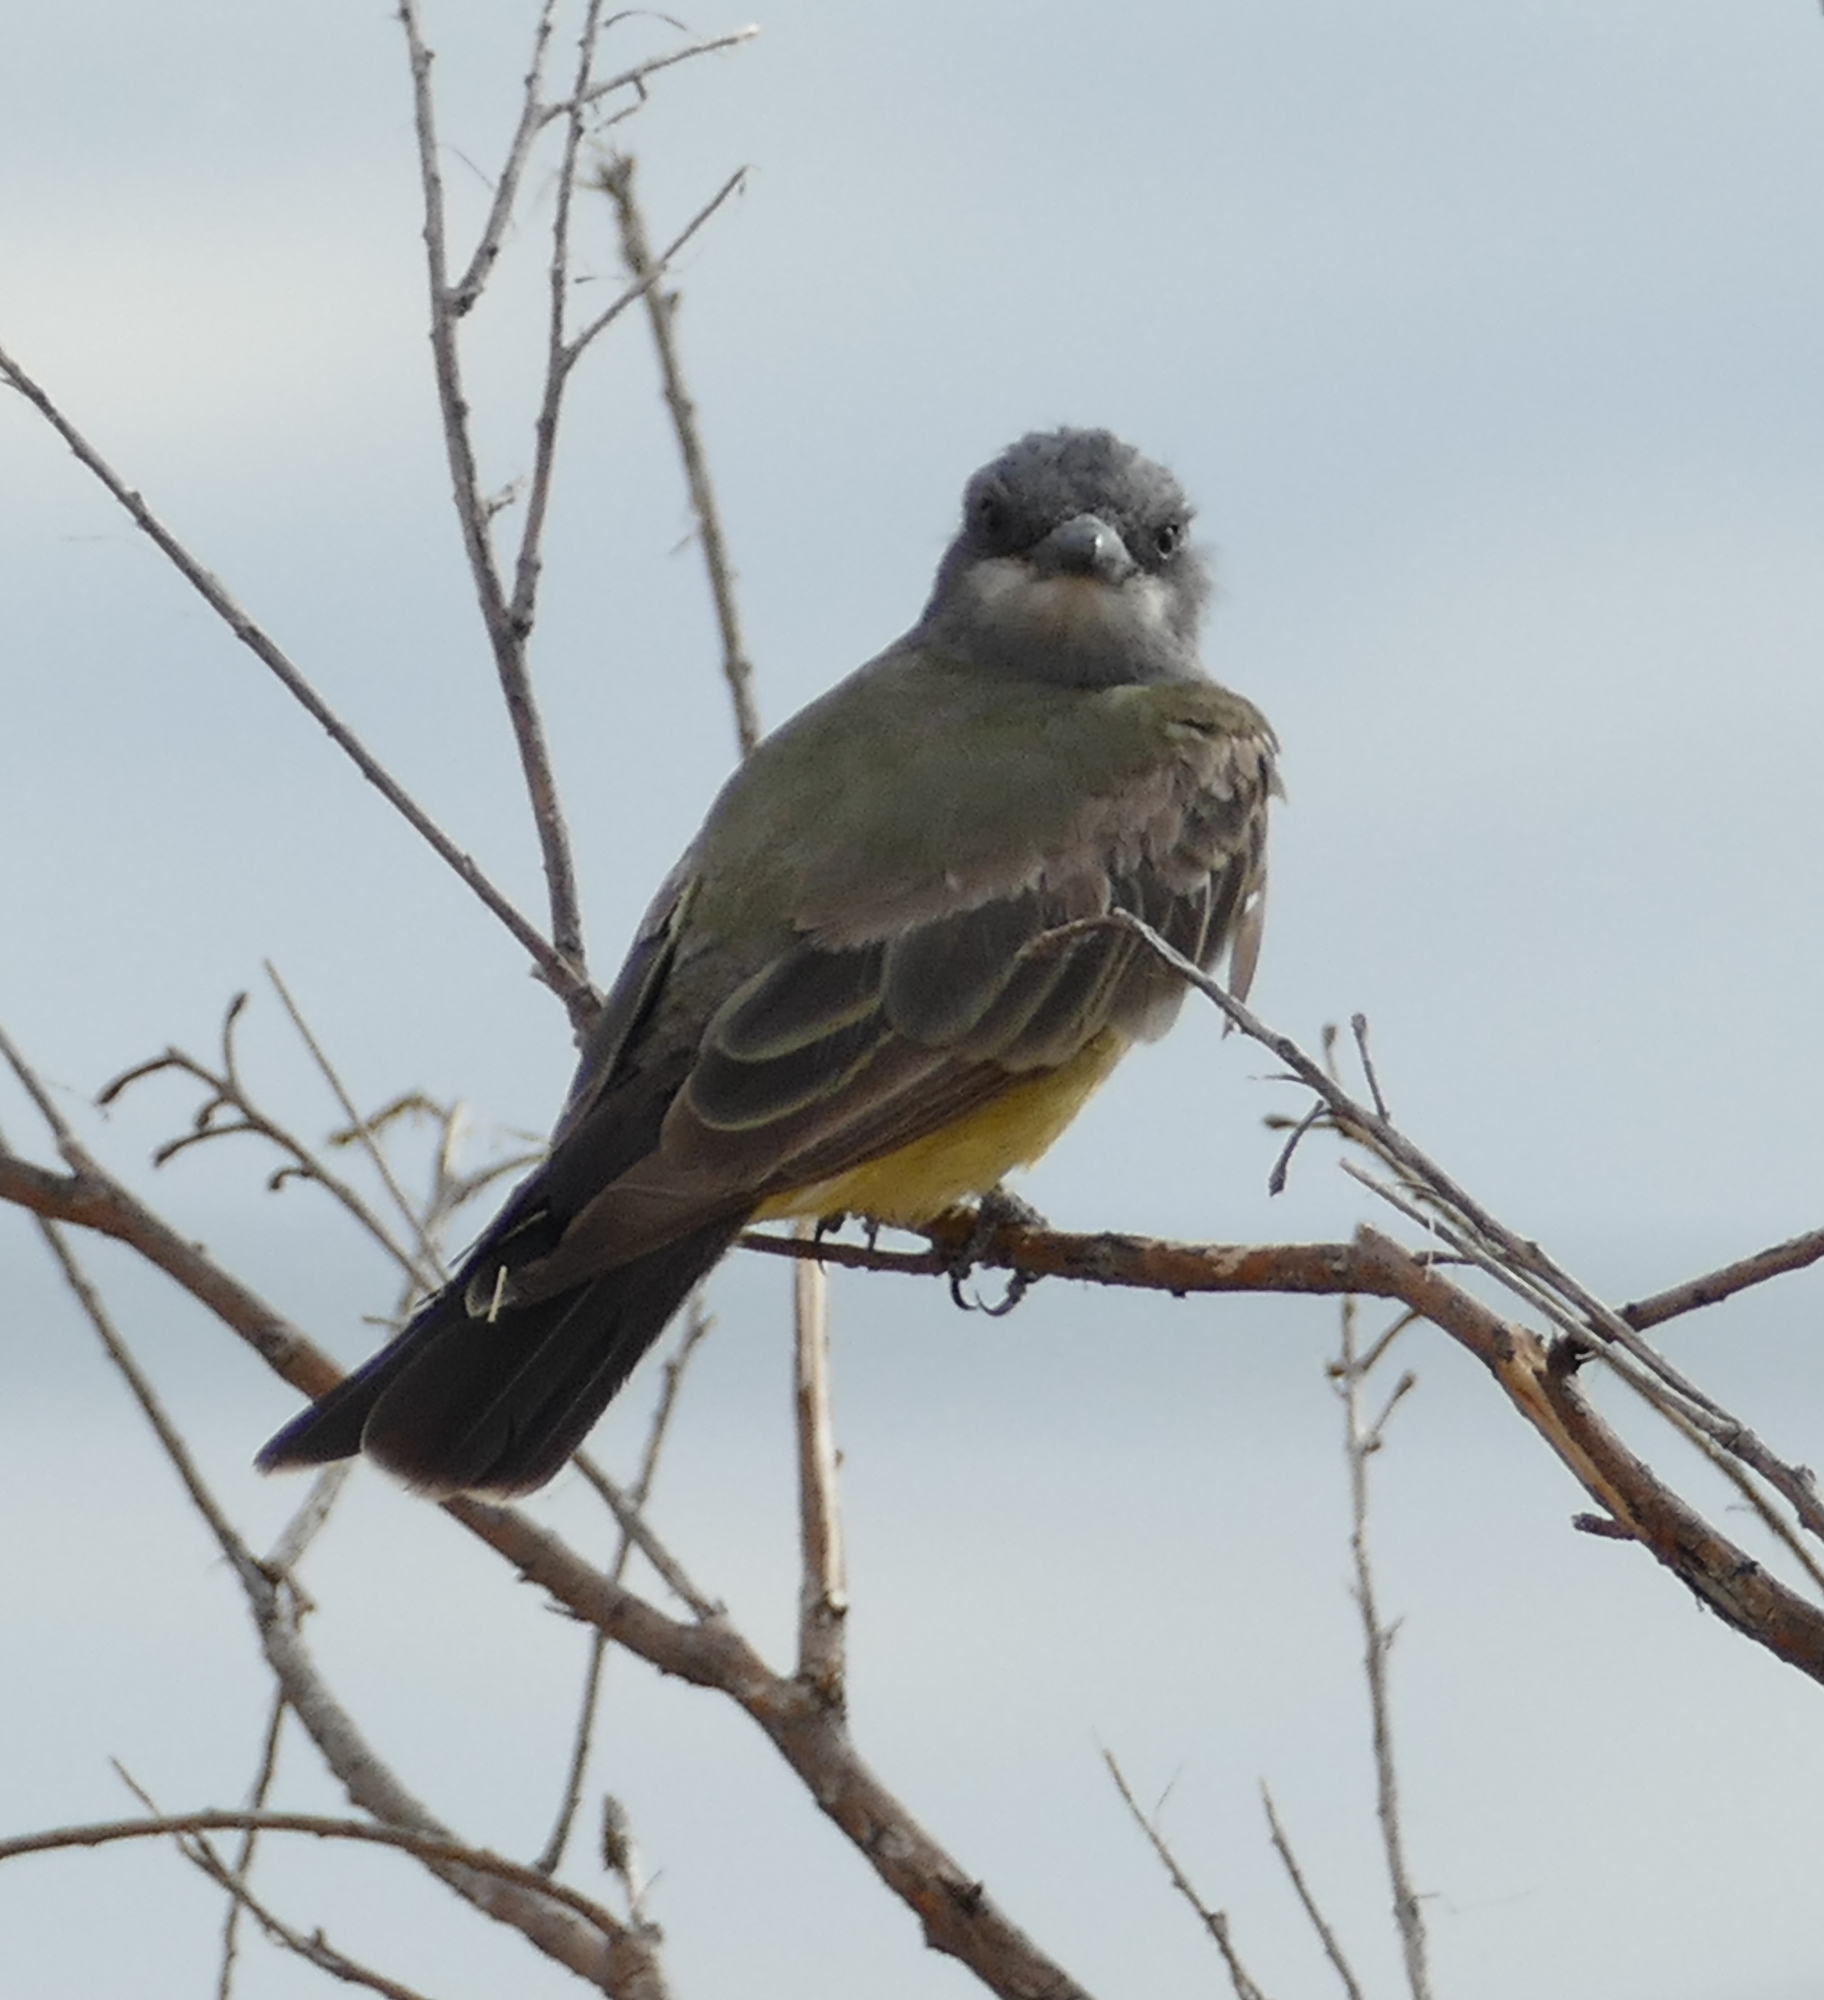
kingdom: Animalia
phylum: Chordata
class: Aves
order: Passeriformes
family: Tyrannidae
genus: Tyrannus
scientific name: Tyrannus vociferans
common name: Cassin's kingbird
